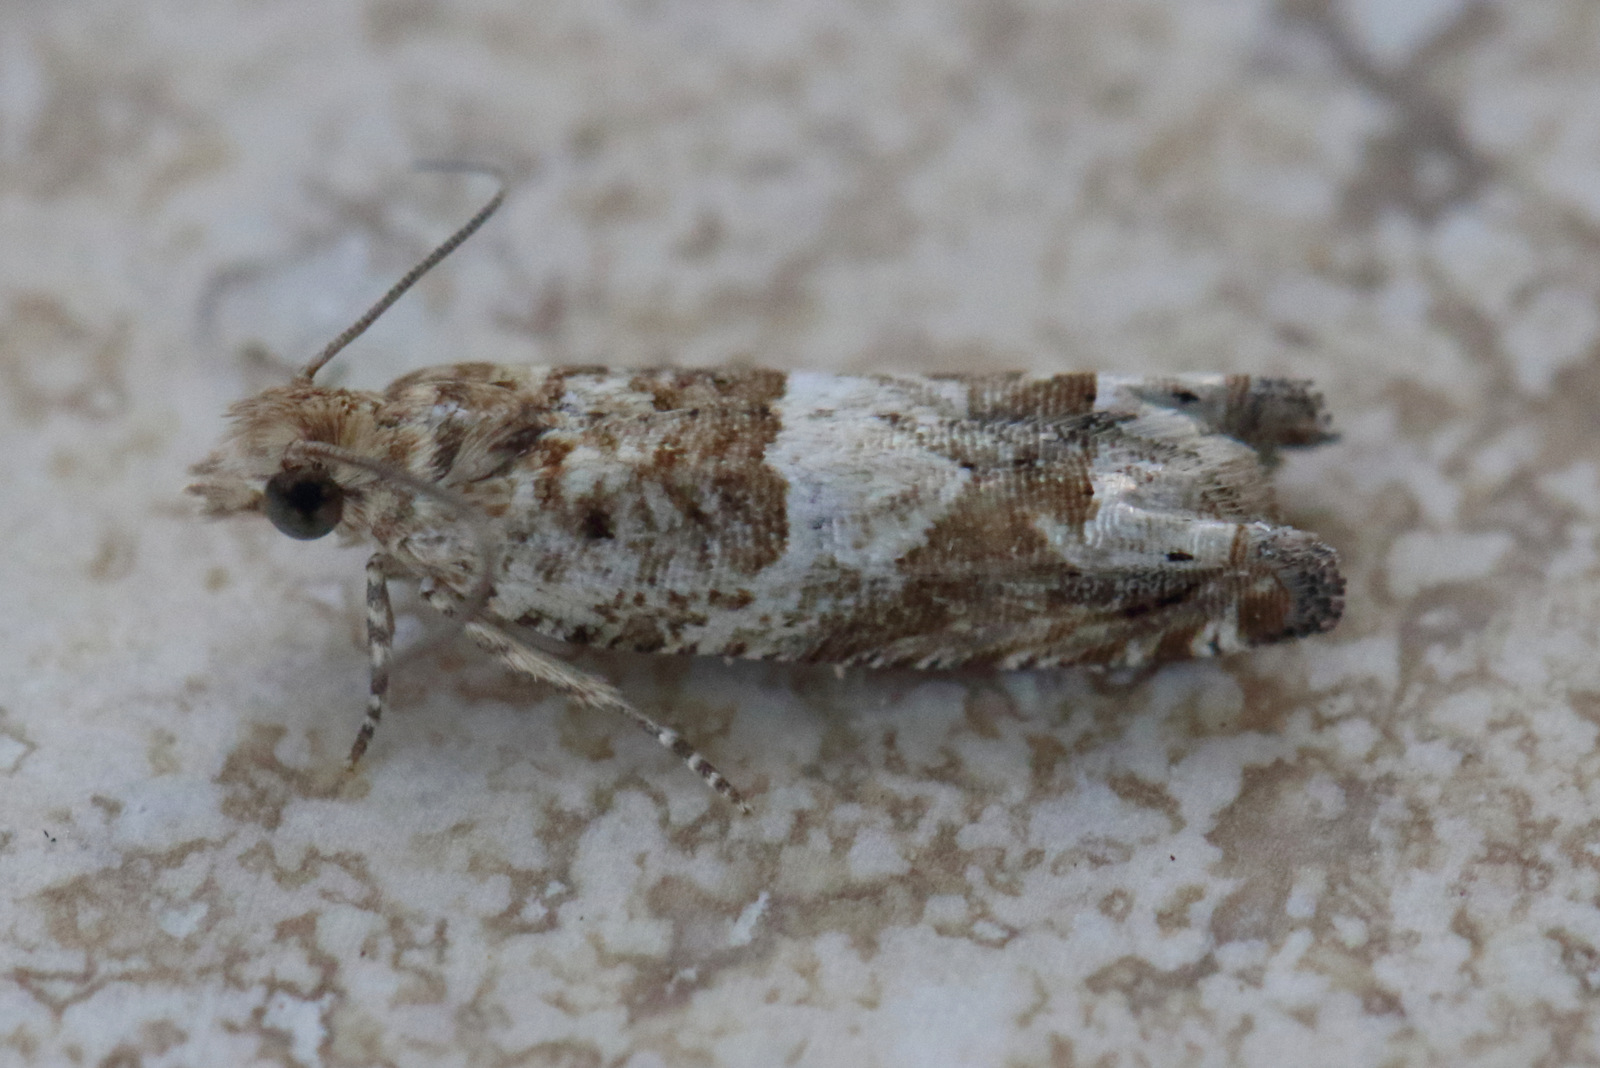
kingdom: Animalia
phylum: Arthropoda
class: Insecta
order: Lepidoptera
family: Tortricidae
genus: Crocidosema
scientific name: Crocidosema plebejana
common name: Southern bell
